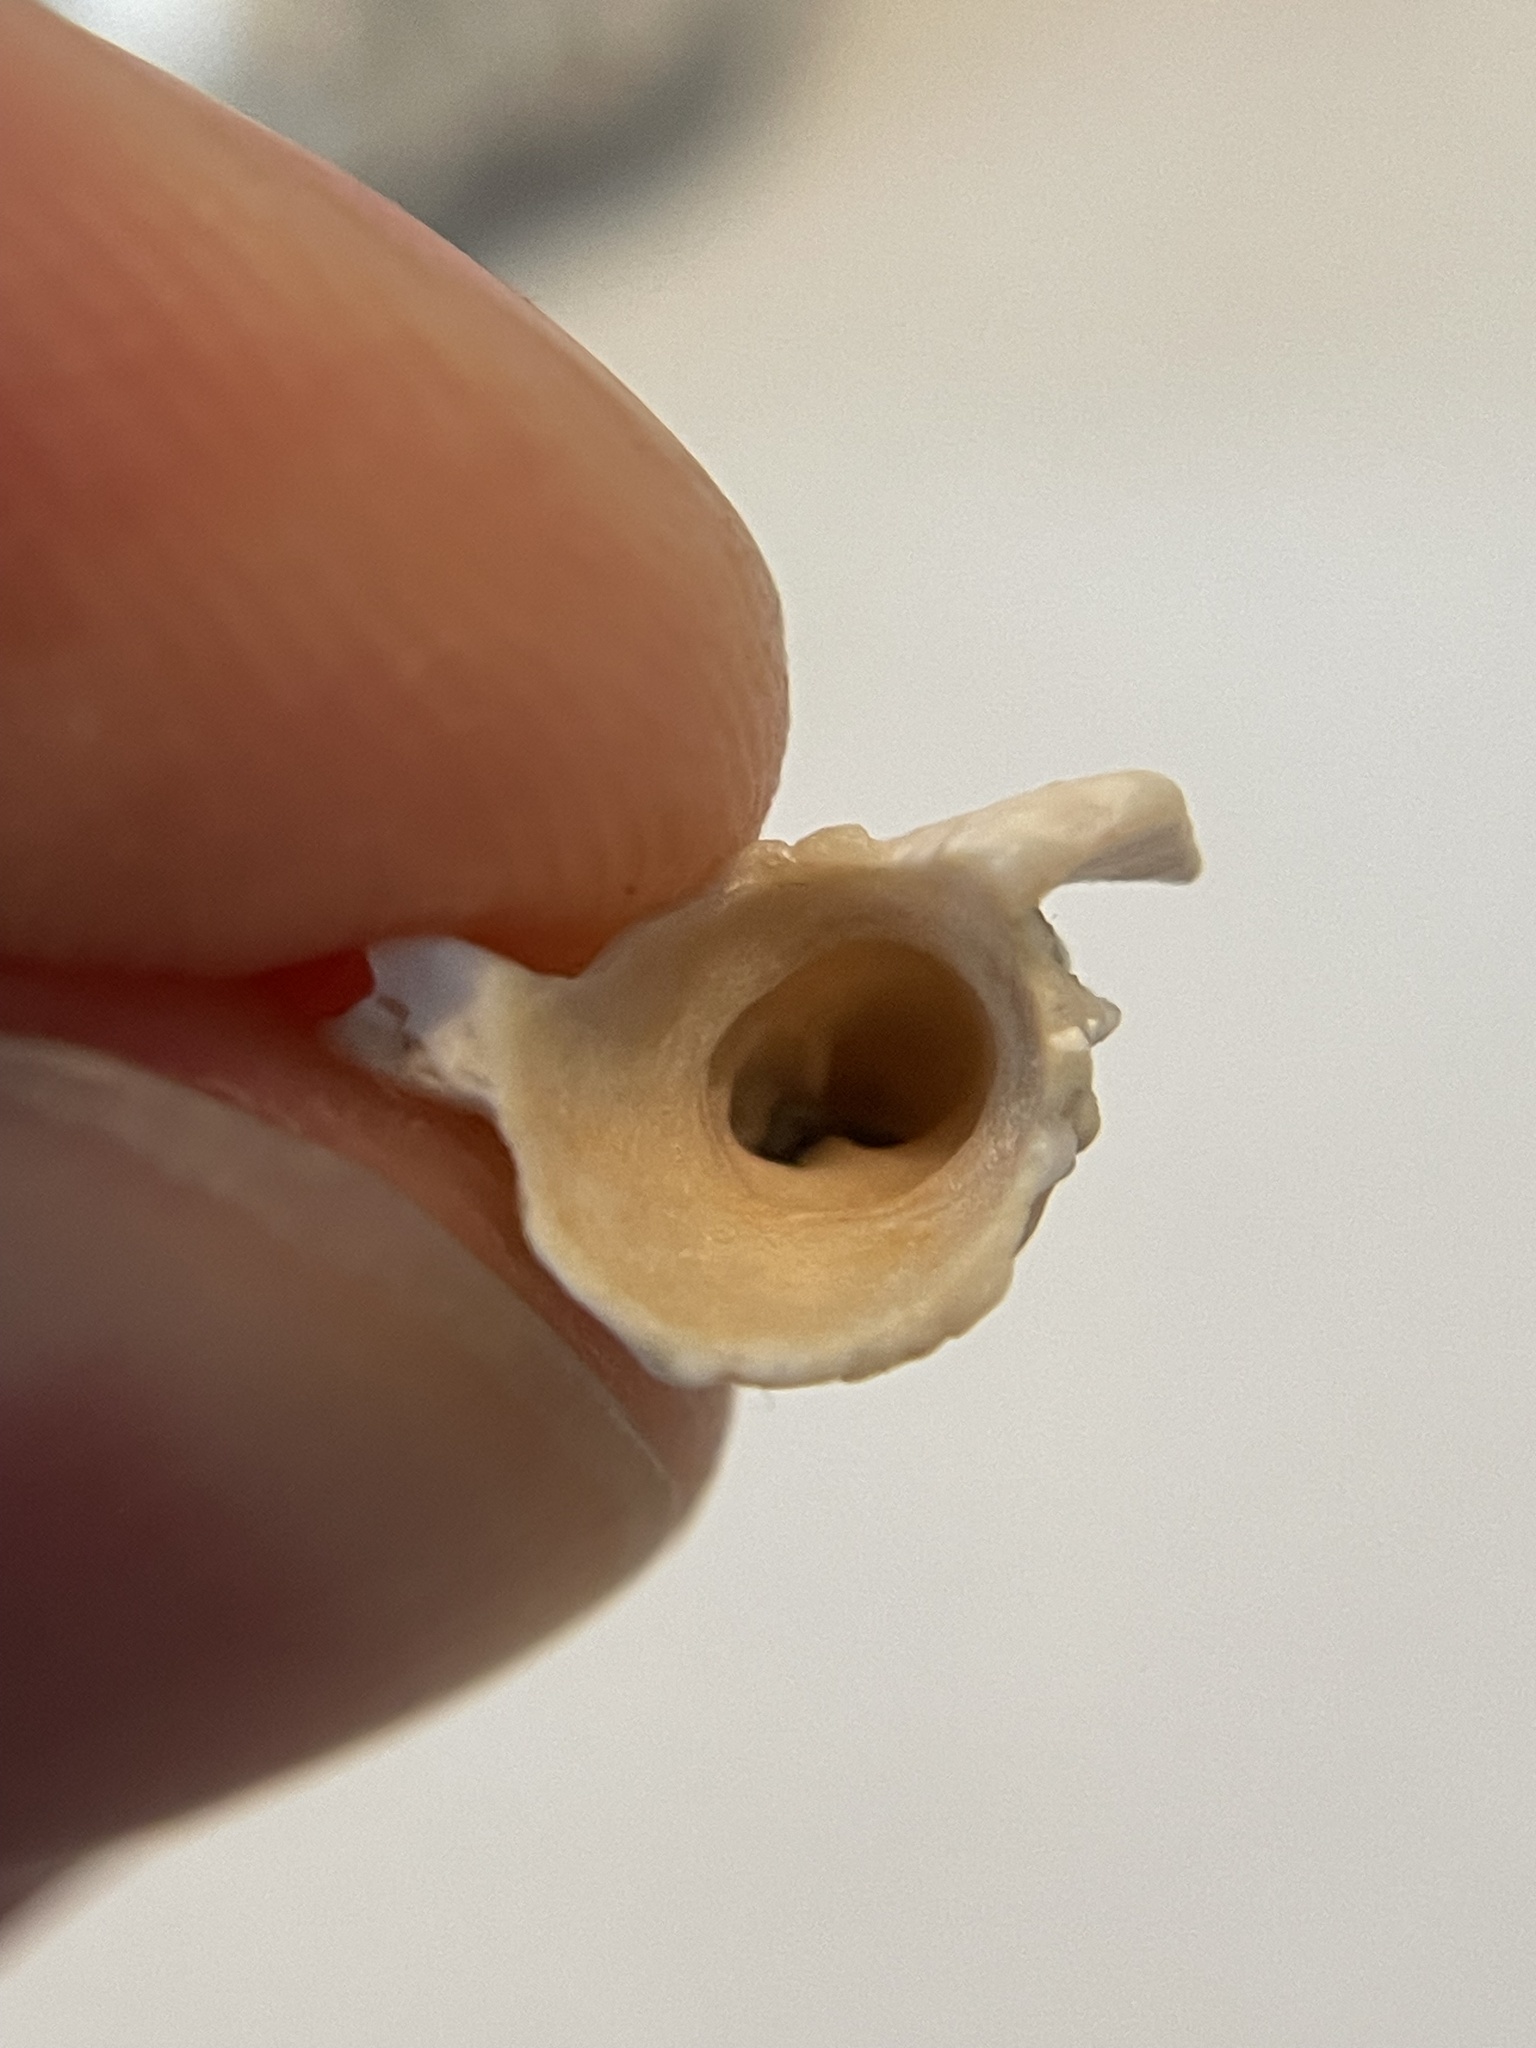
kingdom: Animalia
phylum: Mollusca
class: Bivalvia
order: Gastrochaenida
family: Gastrochaenidae
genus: Rocellaria
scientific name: Rocellaria stimpsonii
